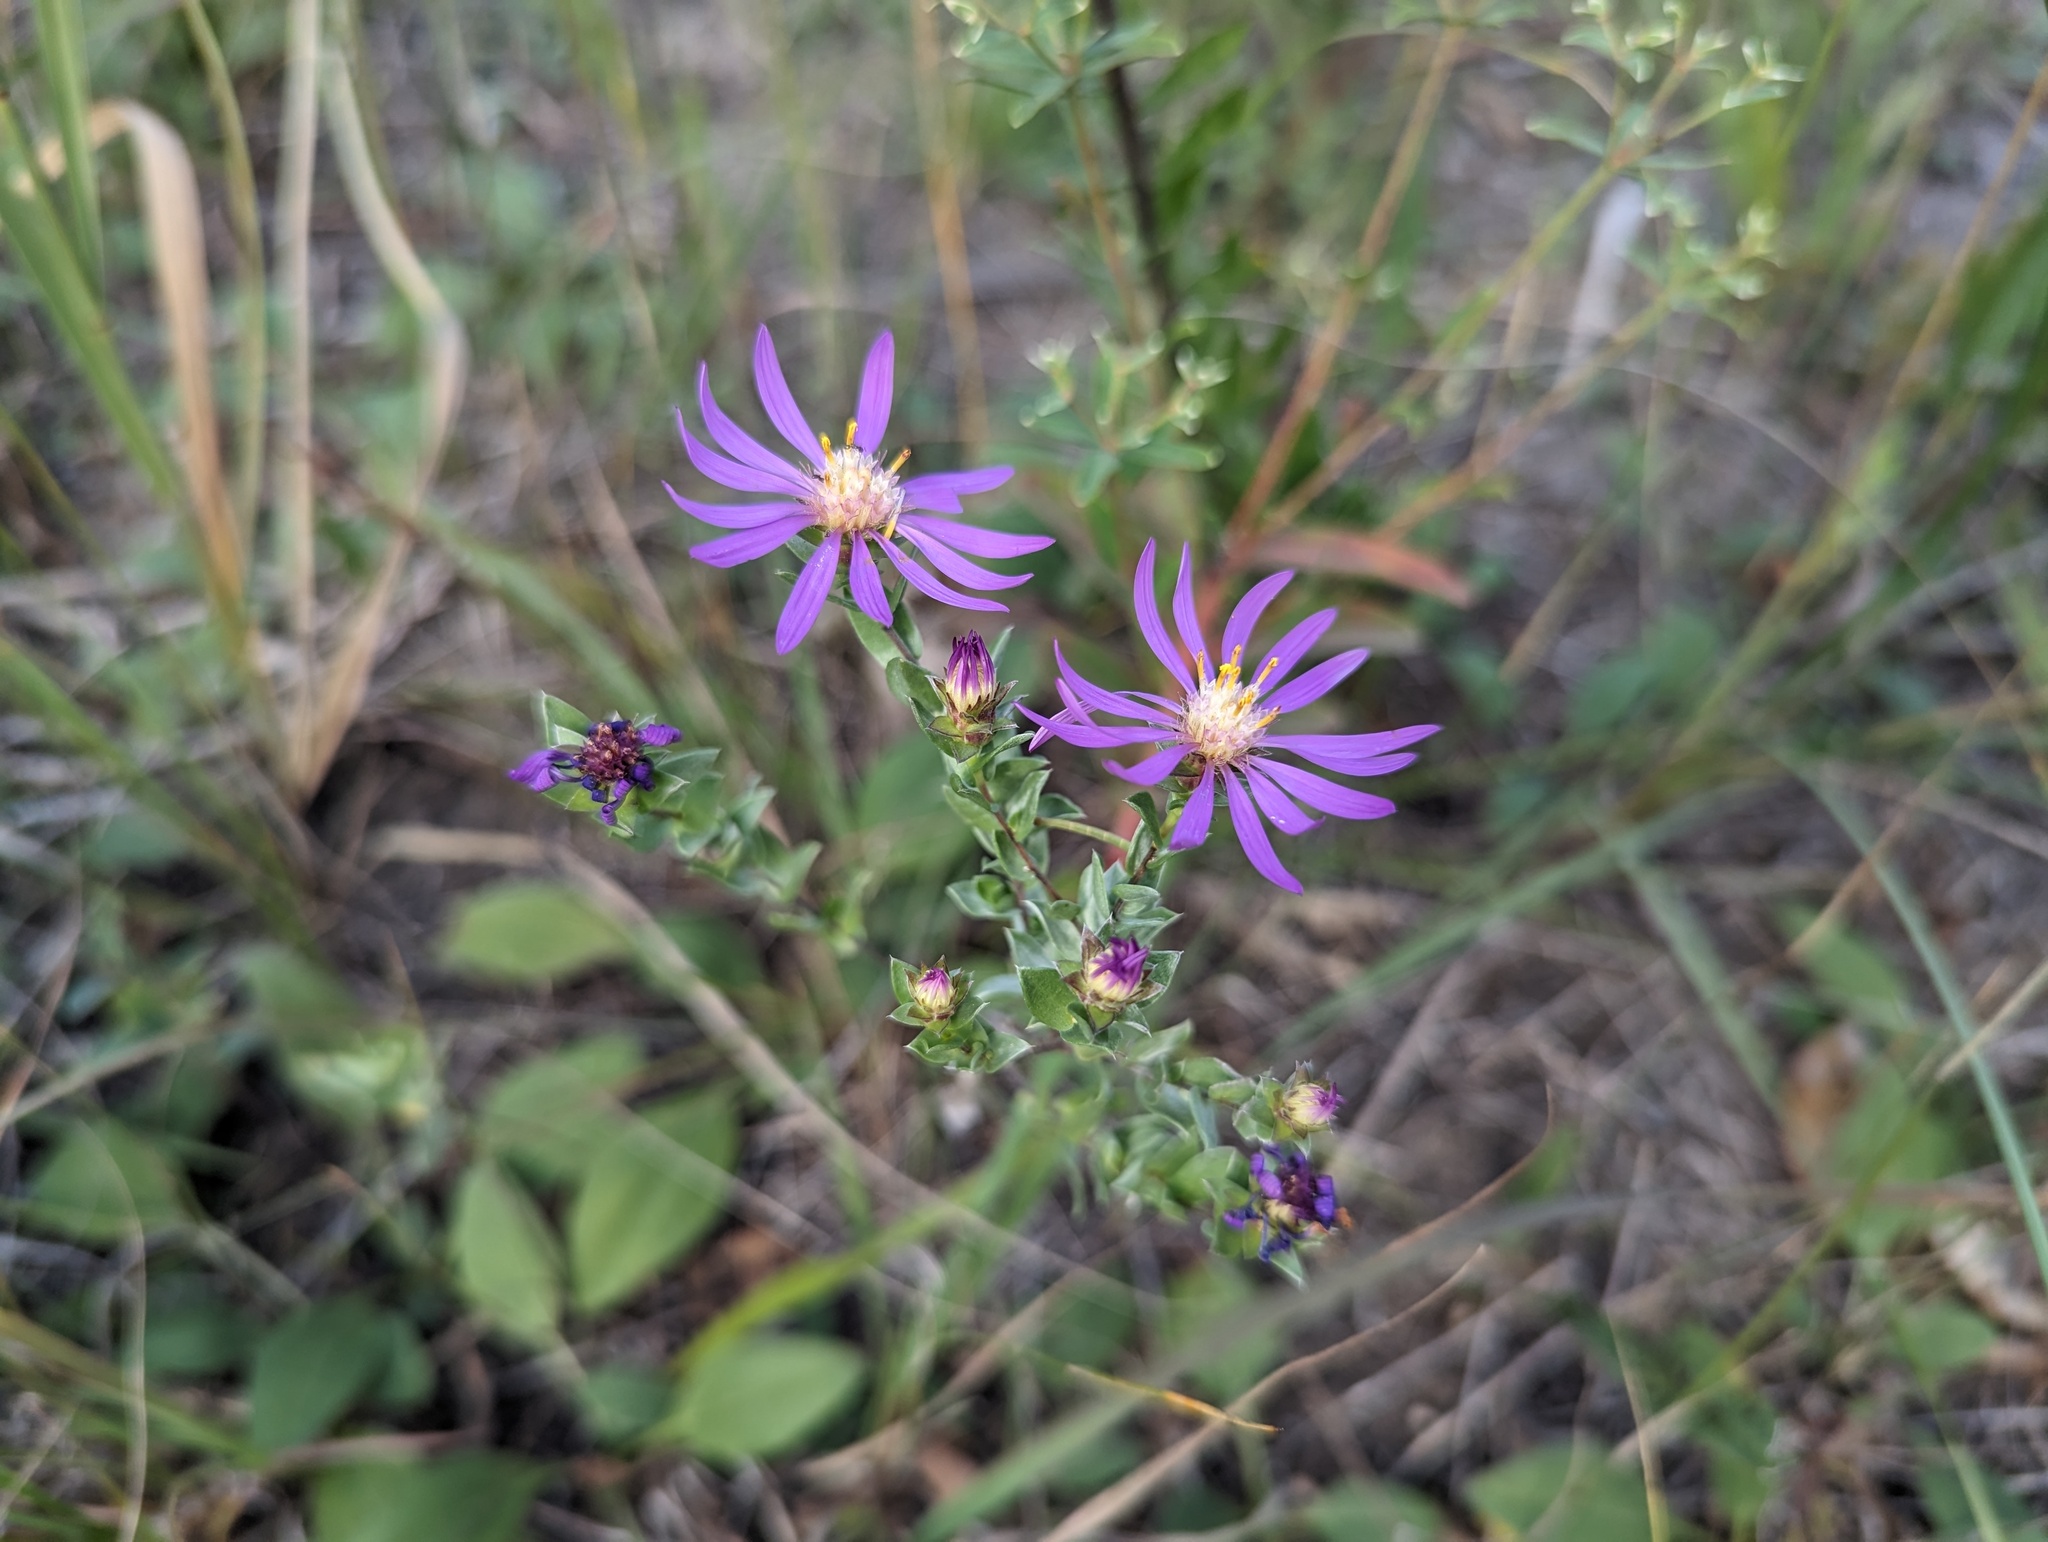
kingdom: Plantae
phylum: Tracheophyta
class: Magnoliopsida
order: Asterales
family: Asteraceae
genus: Symphyotrichum
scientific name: Symphyotrichum sericeum
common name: Silky aster
